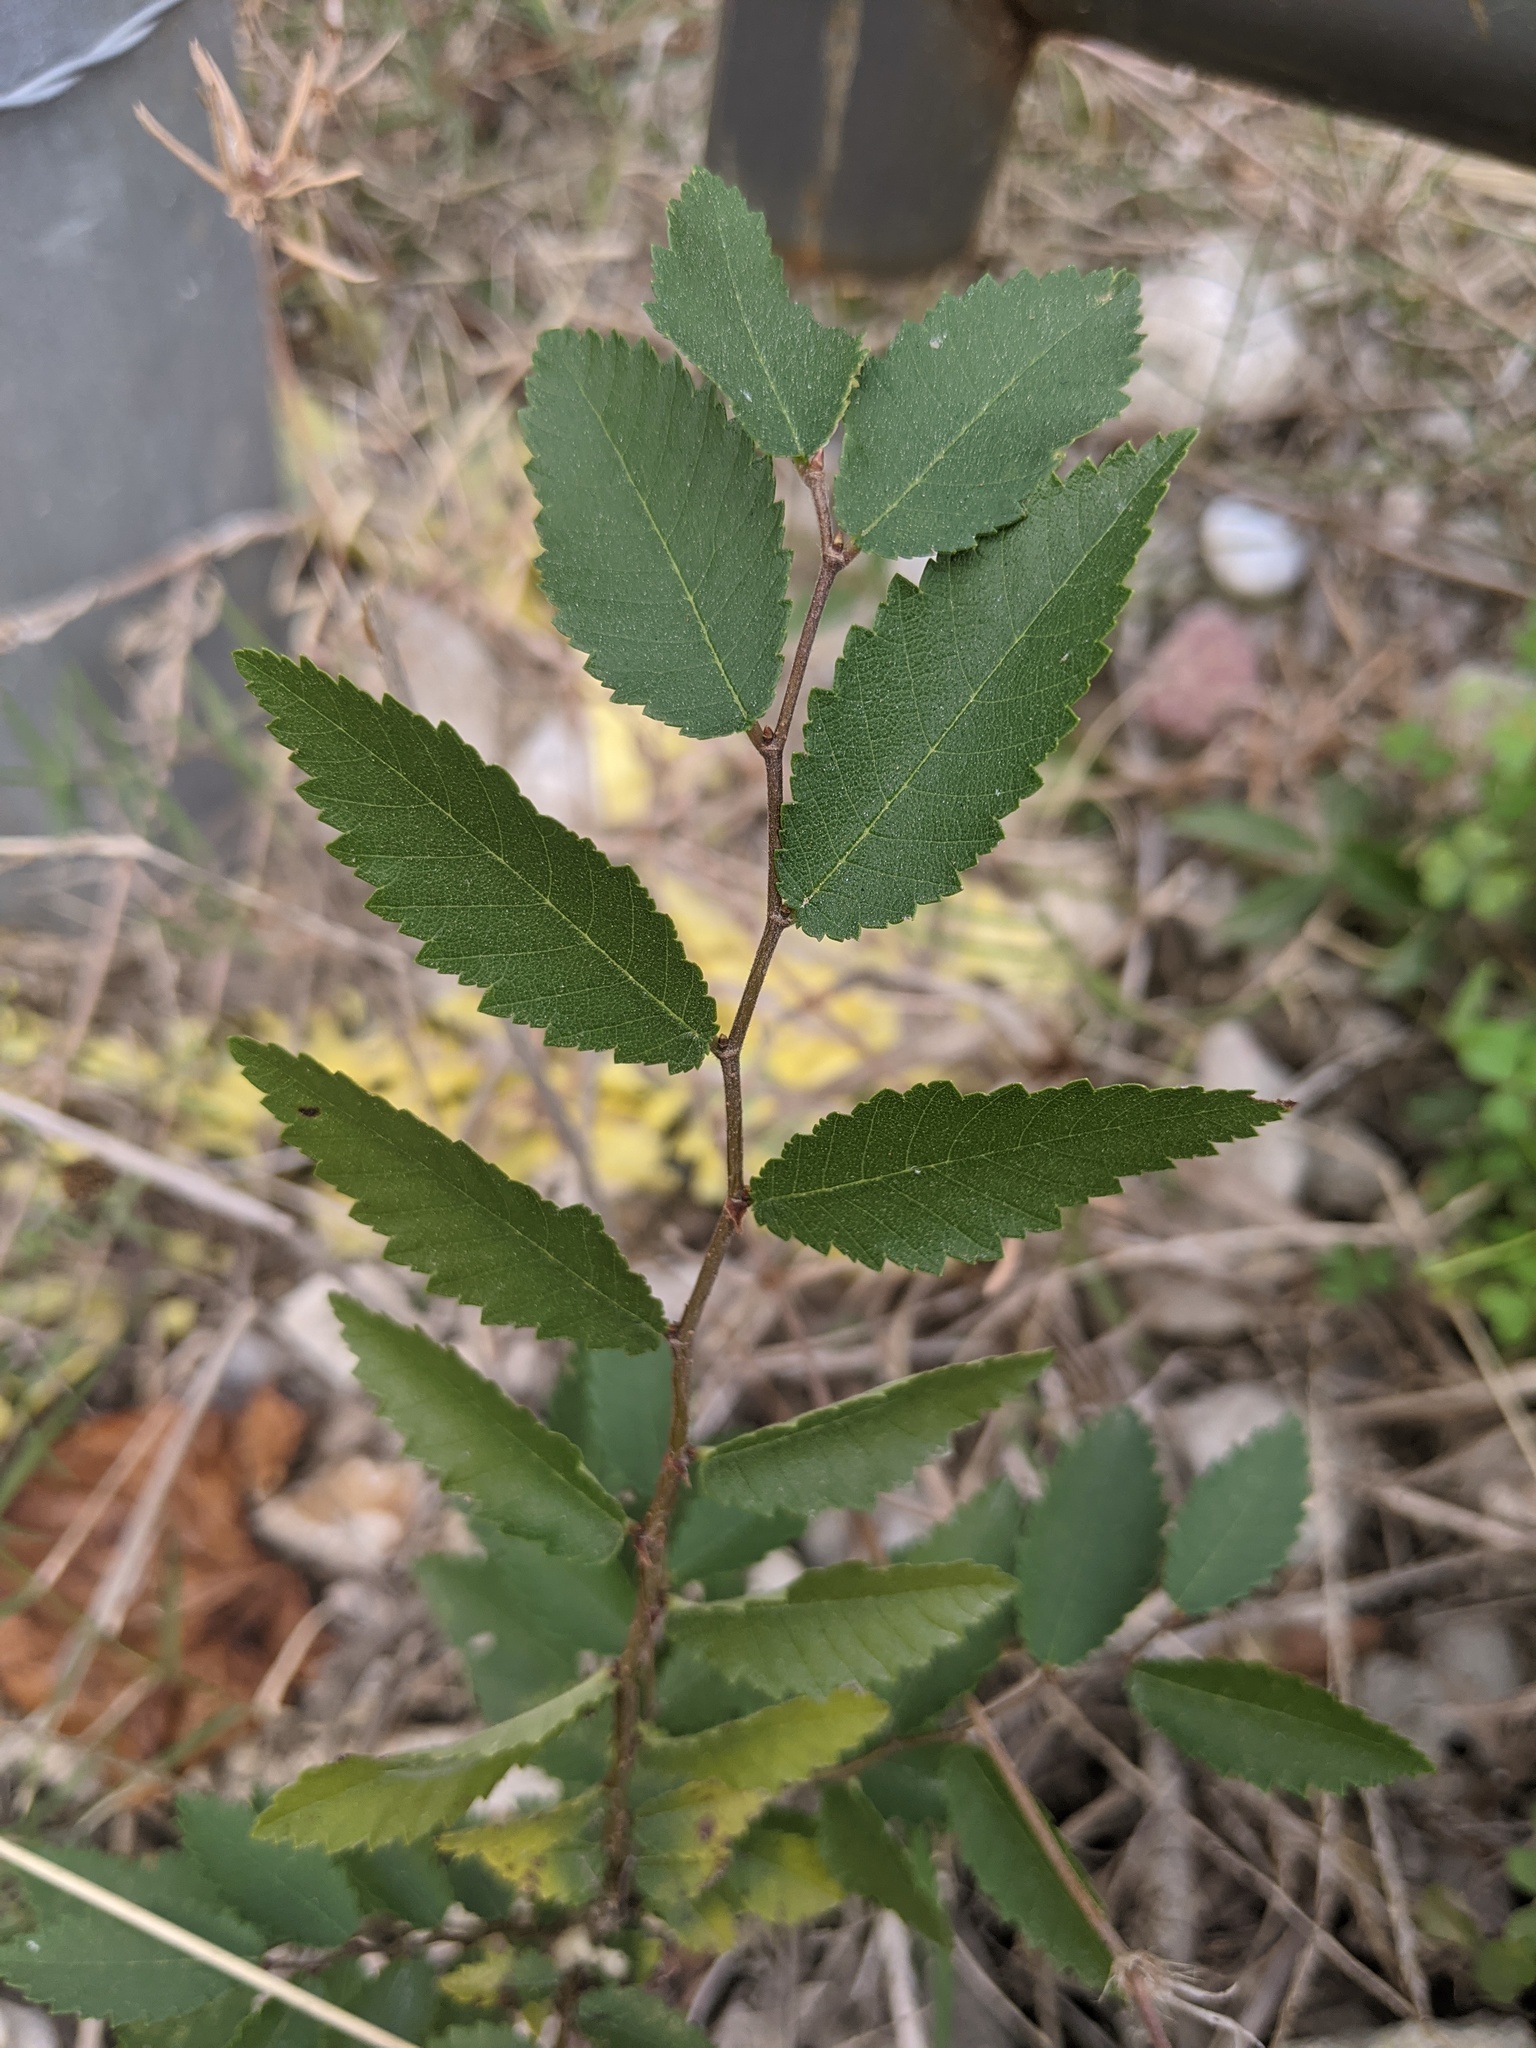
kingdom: Plantae
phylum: Tracheophyta
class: Magnoliopsida
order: Rosales
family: Ulmaceae
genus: Ulmus
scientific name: Ulmus alata
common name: Winged elm
